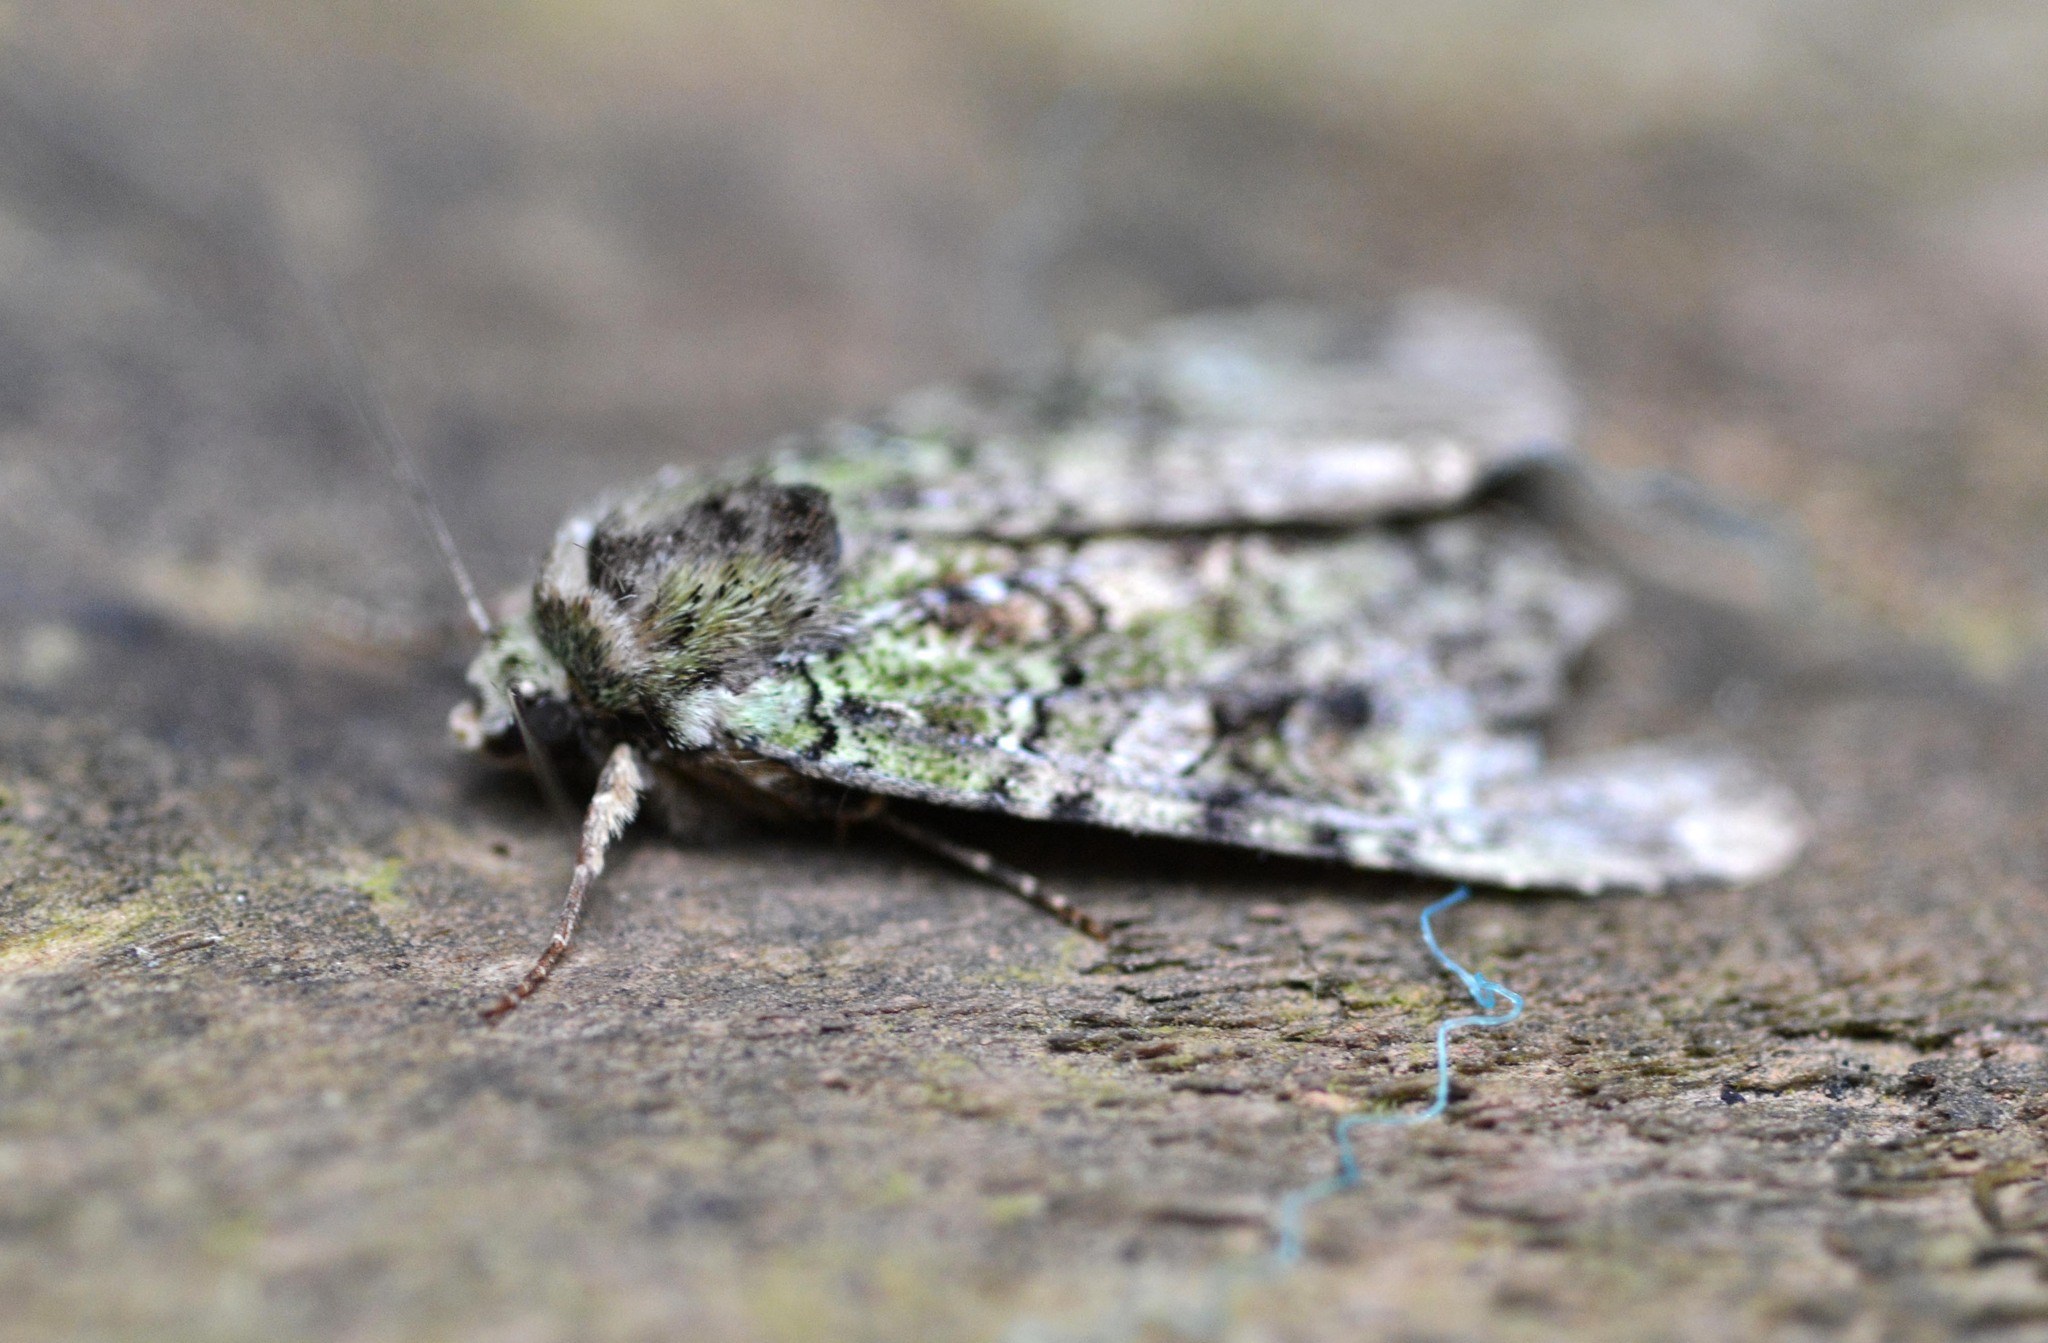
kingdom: Animalia
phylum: Arthropoda
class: Insecta
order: Lepidoptera
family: Noctuidae
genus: Anaplectoides
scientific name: Anaplectoides prasina
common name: Green arches
